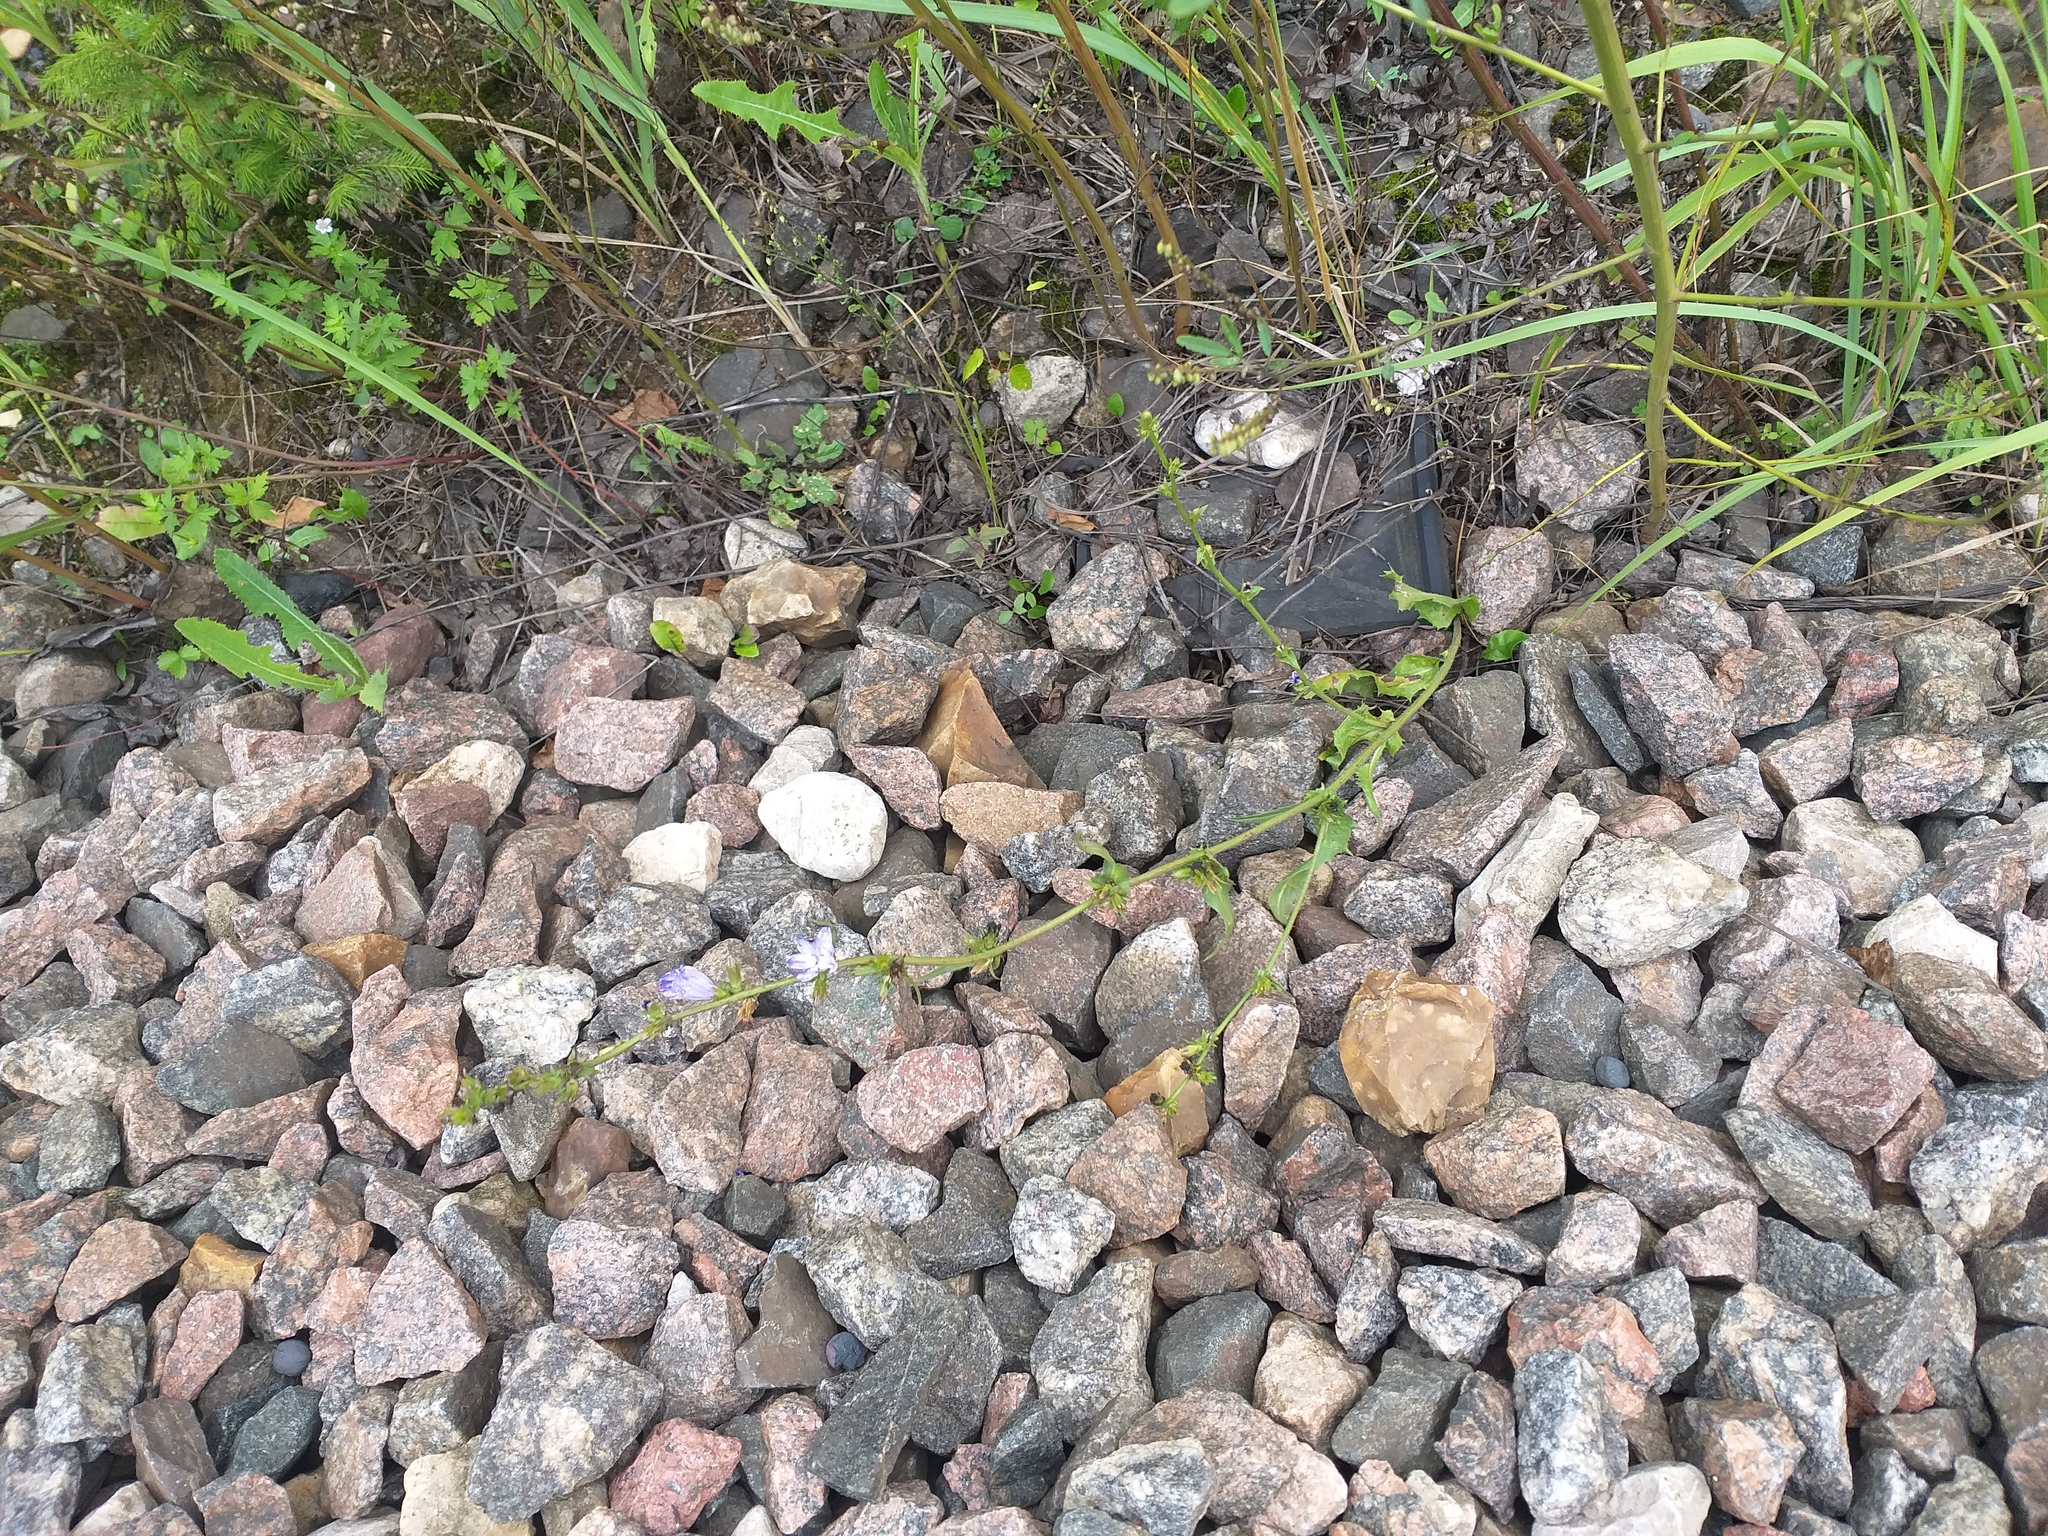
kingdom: Plantae
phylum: Tracheophyta
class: Magnoliopsida
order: Asterales
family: Asteraceae
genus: Cichorium
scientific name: Cichorium intybus
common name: Chicory
